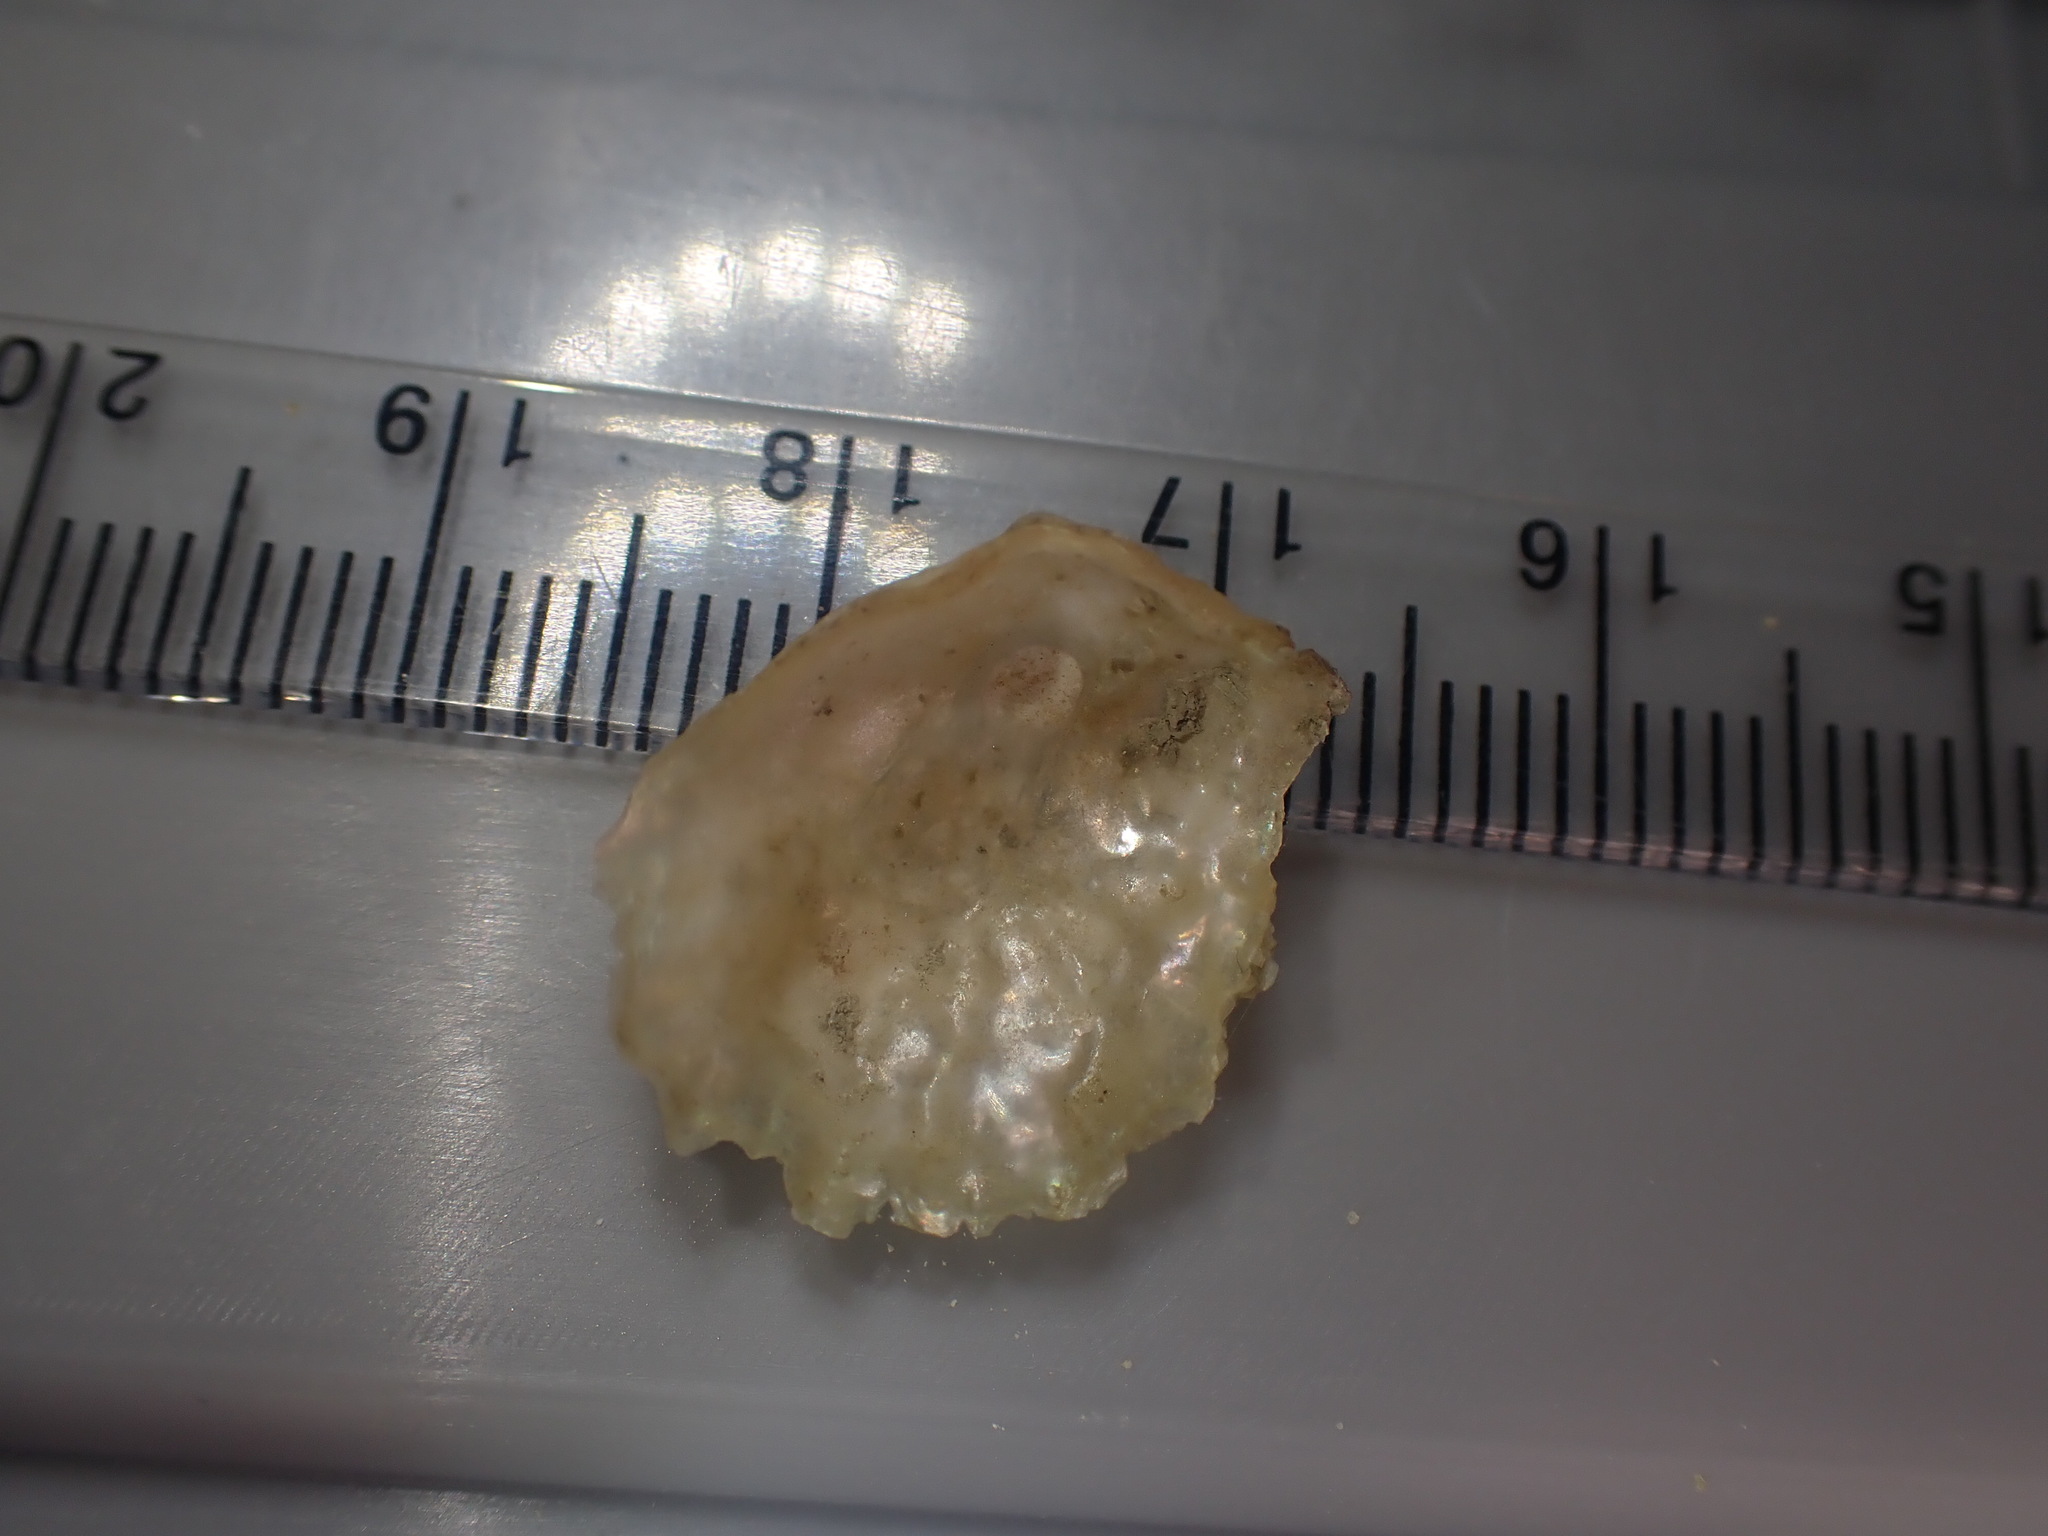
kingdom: Animalia
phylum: Mollusca
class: Bivalvia
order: Pectinida
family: Anomiidae
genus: Anomia
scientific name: Anomia trigonopsis
